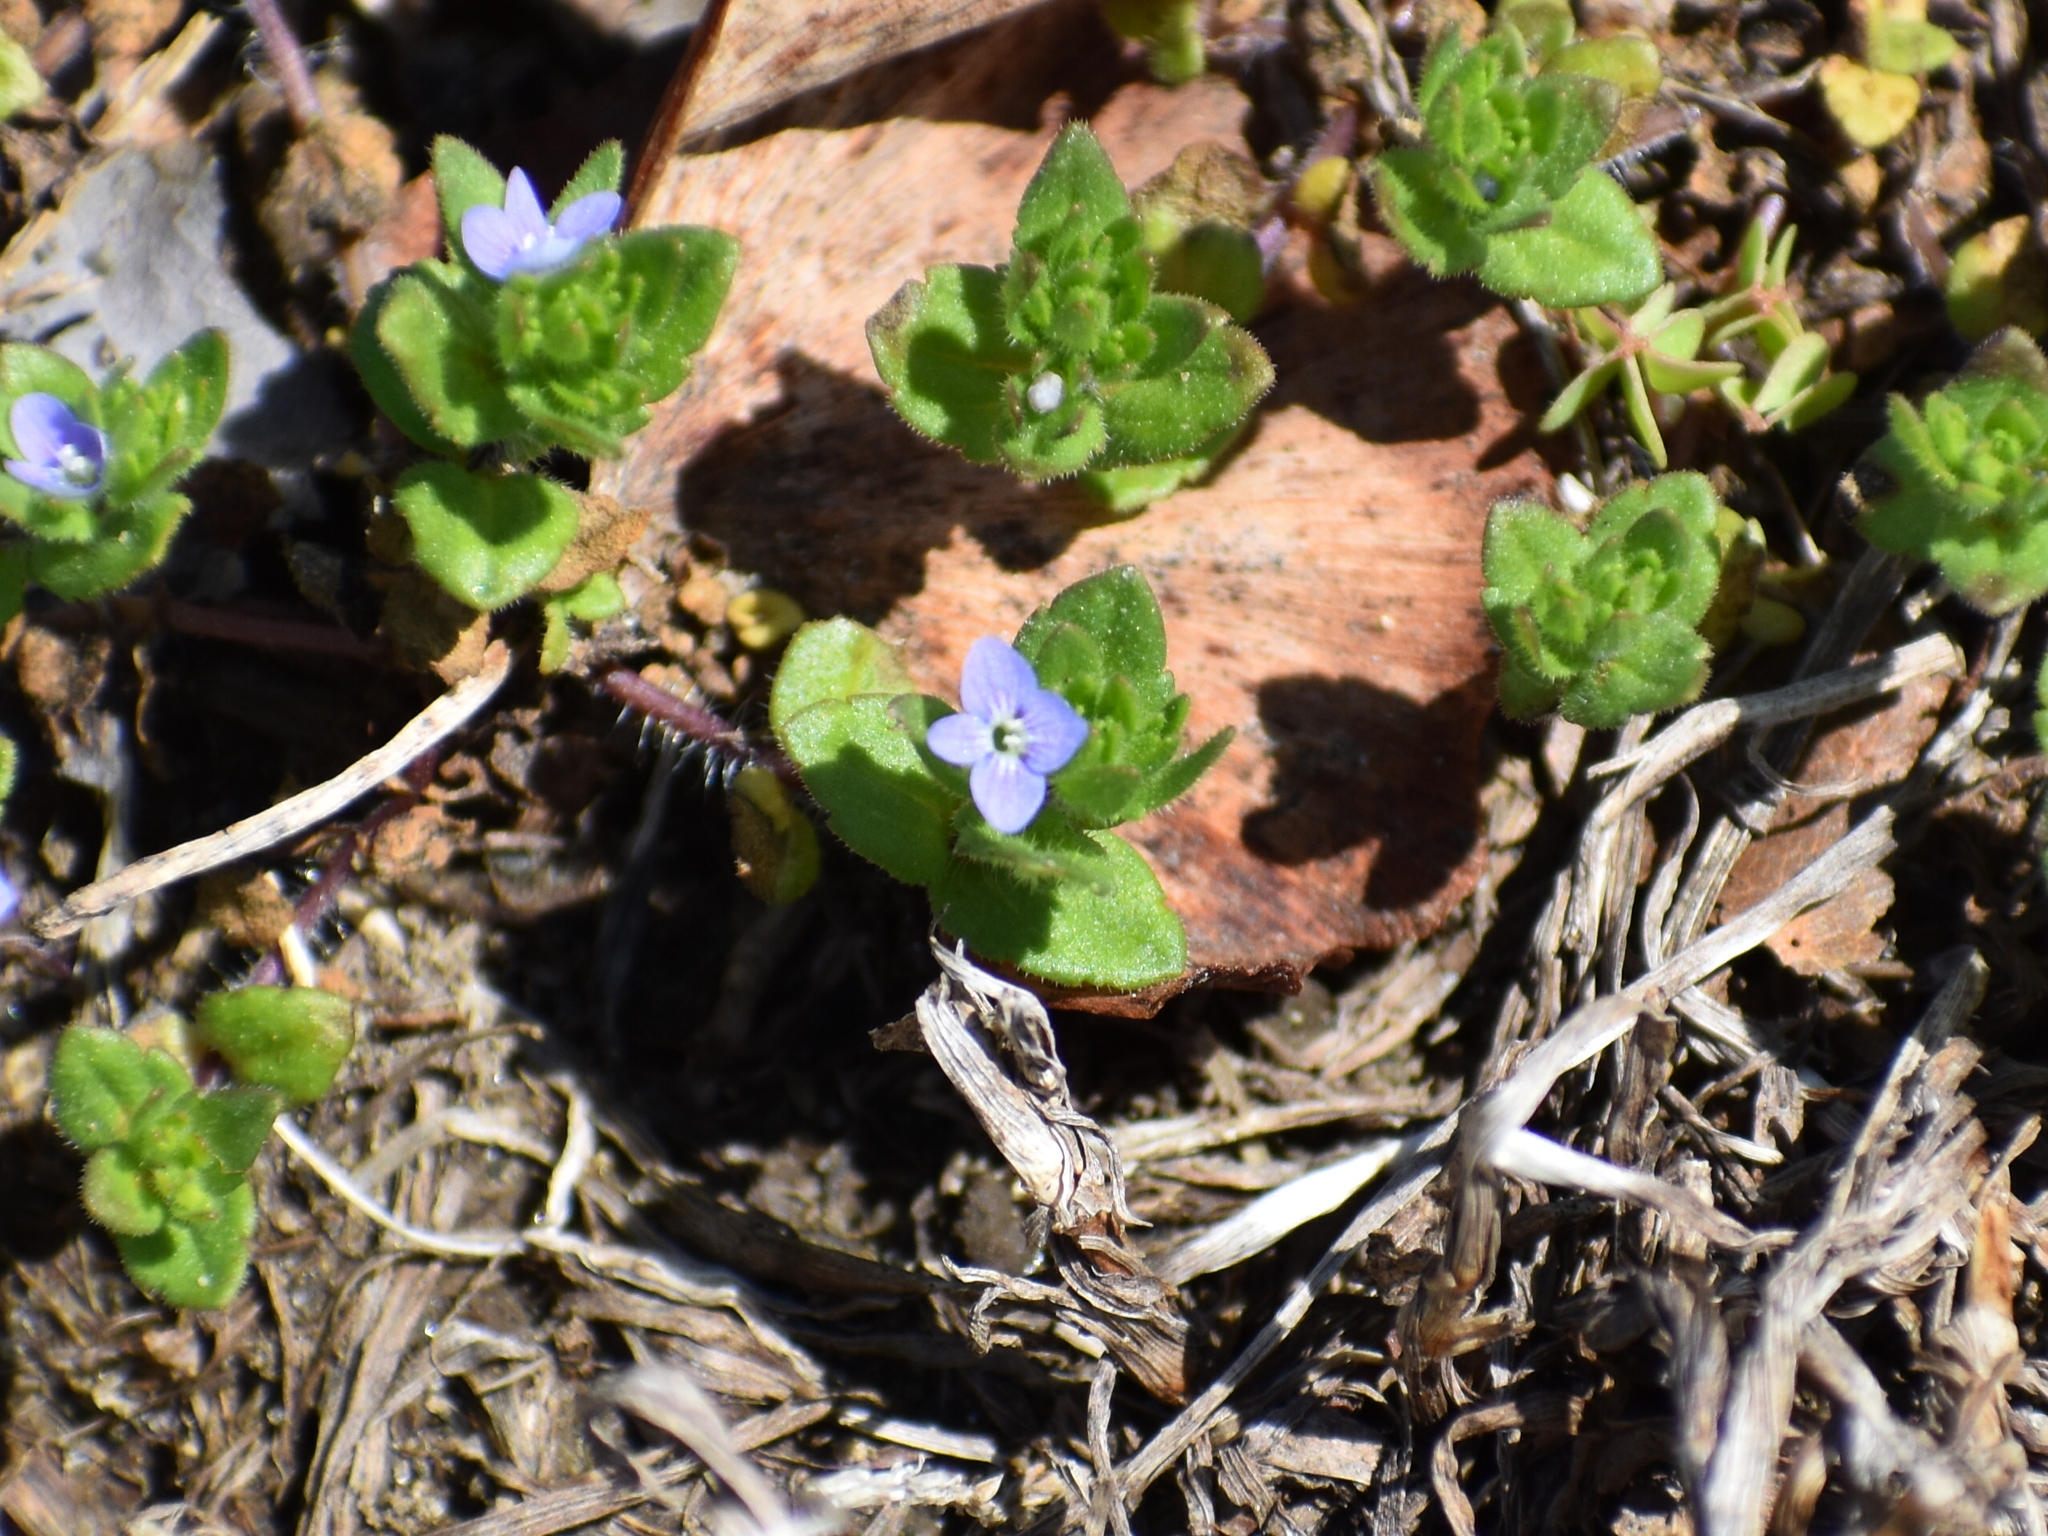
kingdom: Plantae
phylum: Tracheophyta
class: Magnoliopsida
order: Lamiales
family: Plantaginaceae
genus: Veronica
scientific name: Veronica arvensis
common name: Corn speedwell
